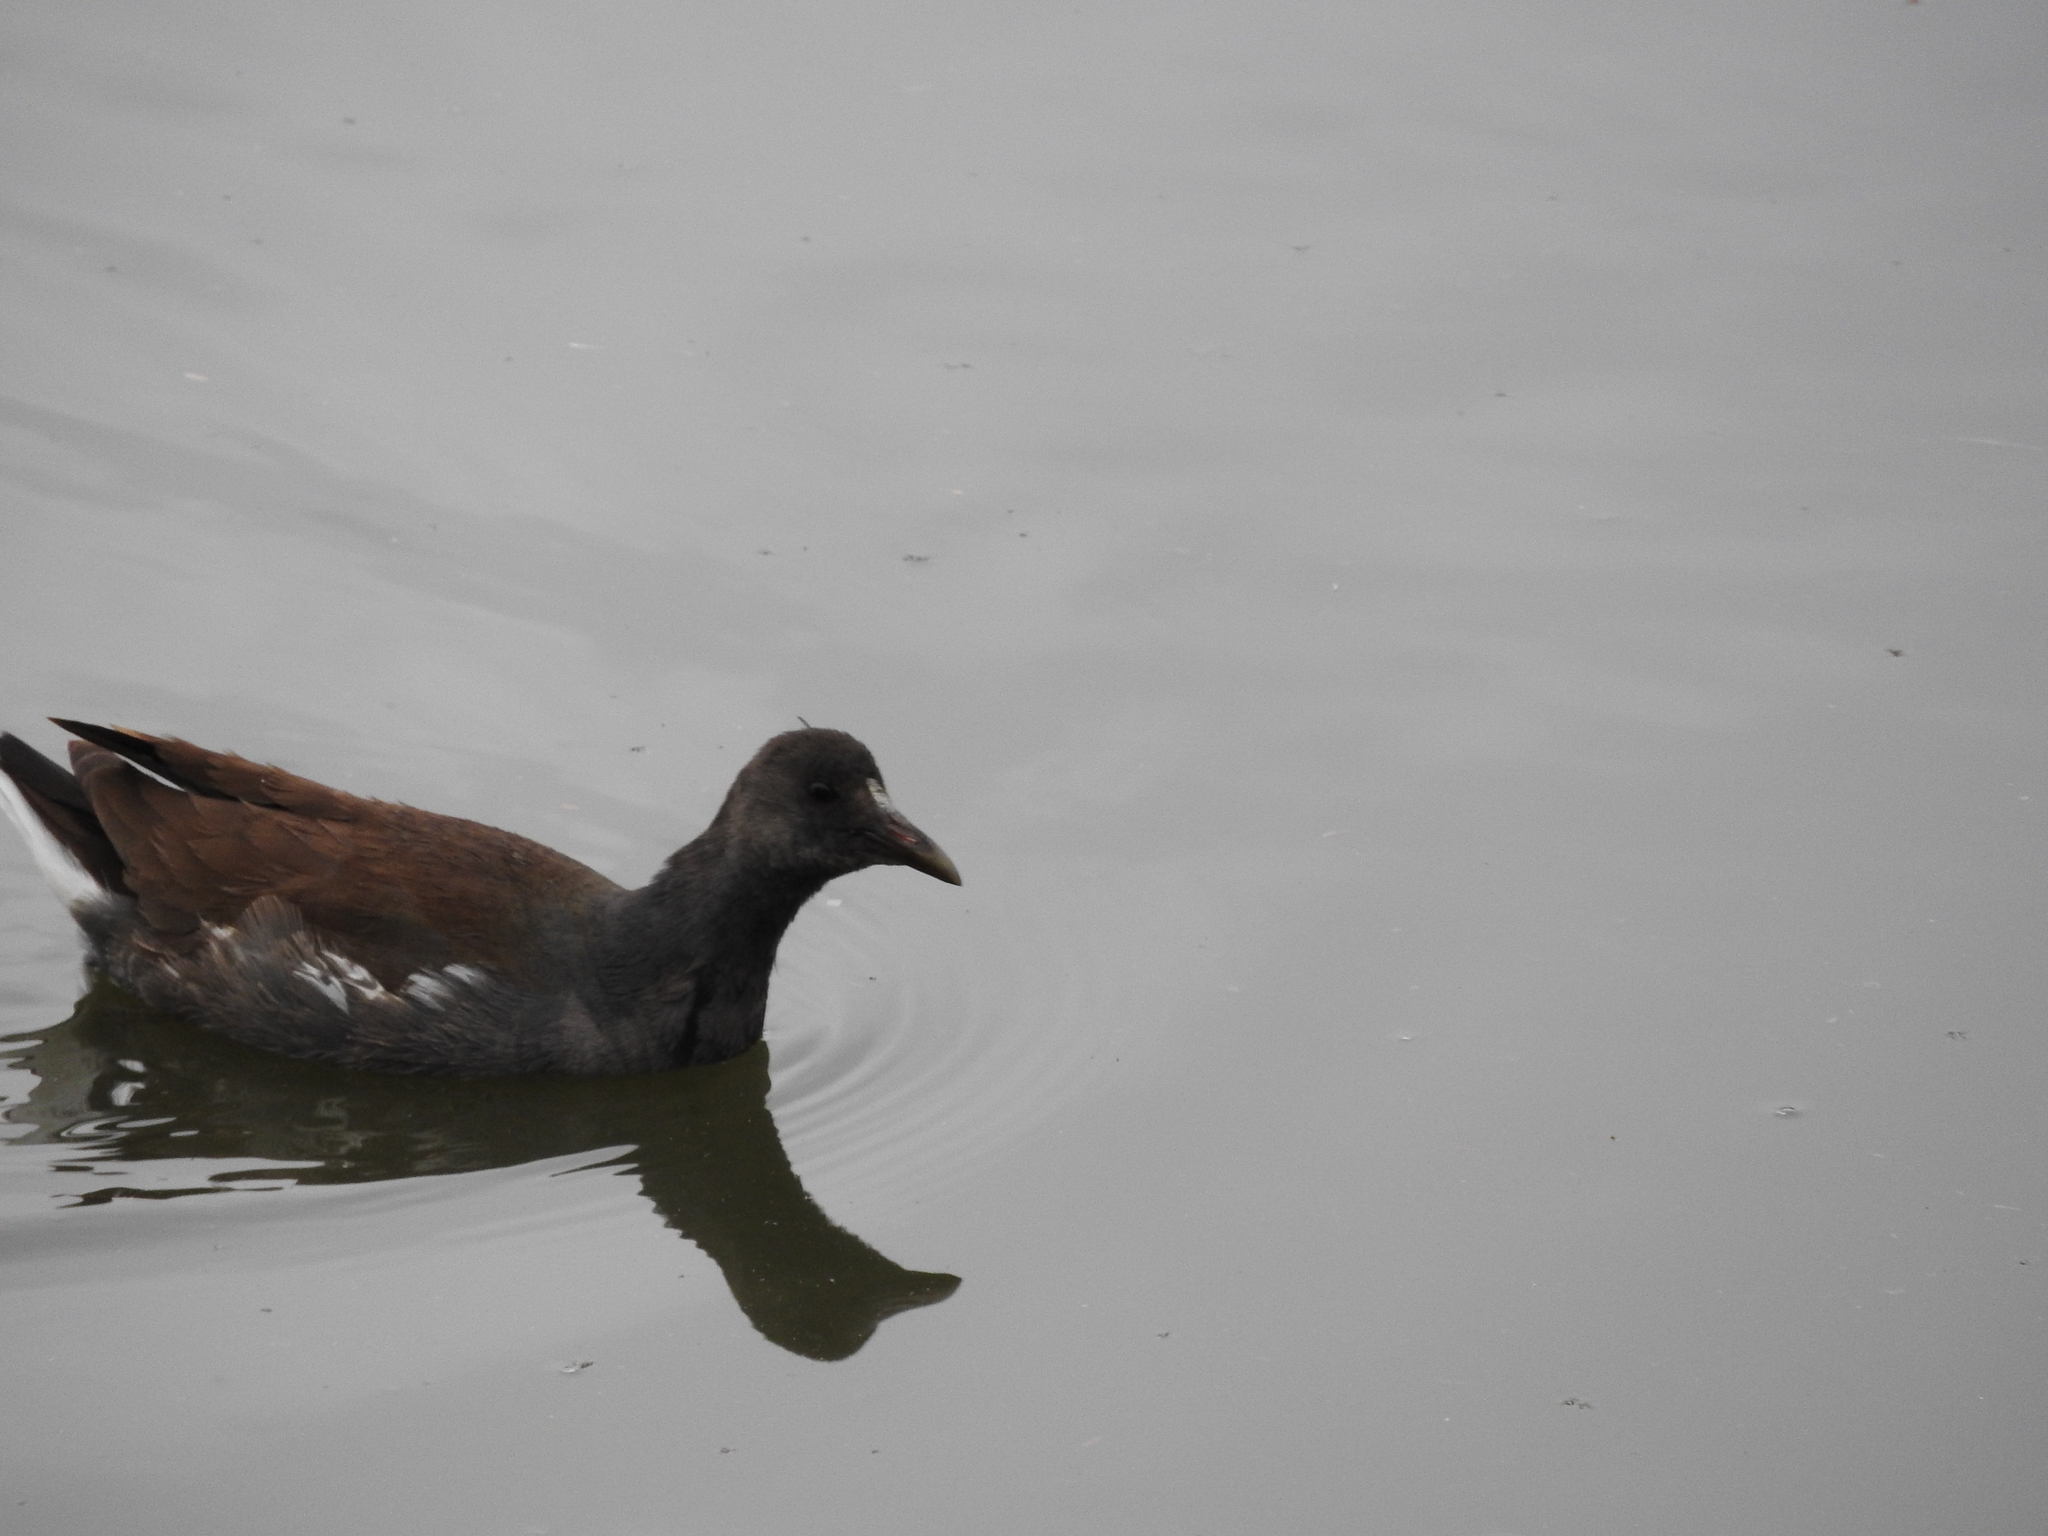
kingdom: Animalia
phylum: Chordata
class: Aves
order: Gruiformes
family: Rallidae
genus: Gallinula
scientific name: Gallinula chloropus
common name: Common moorhen
